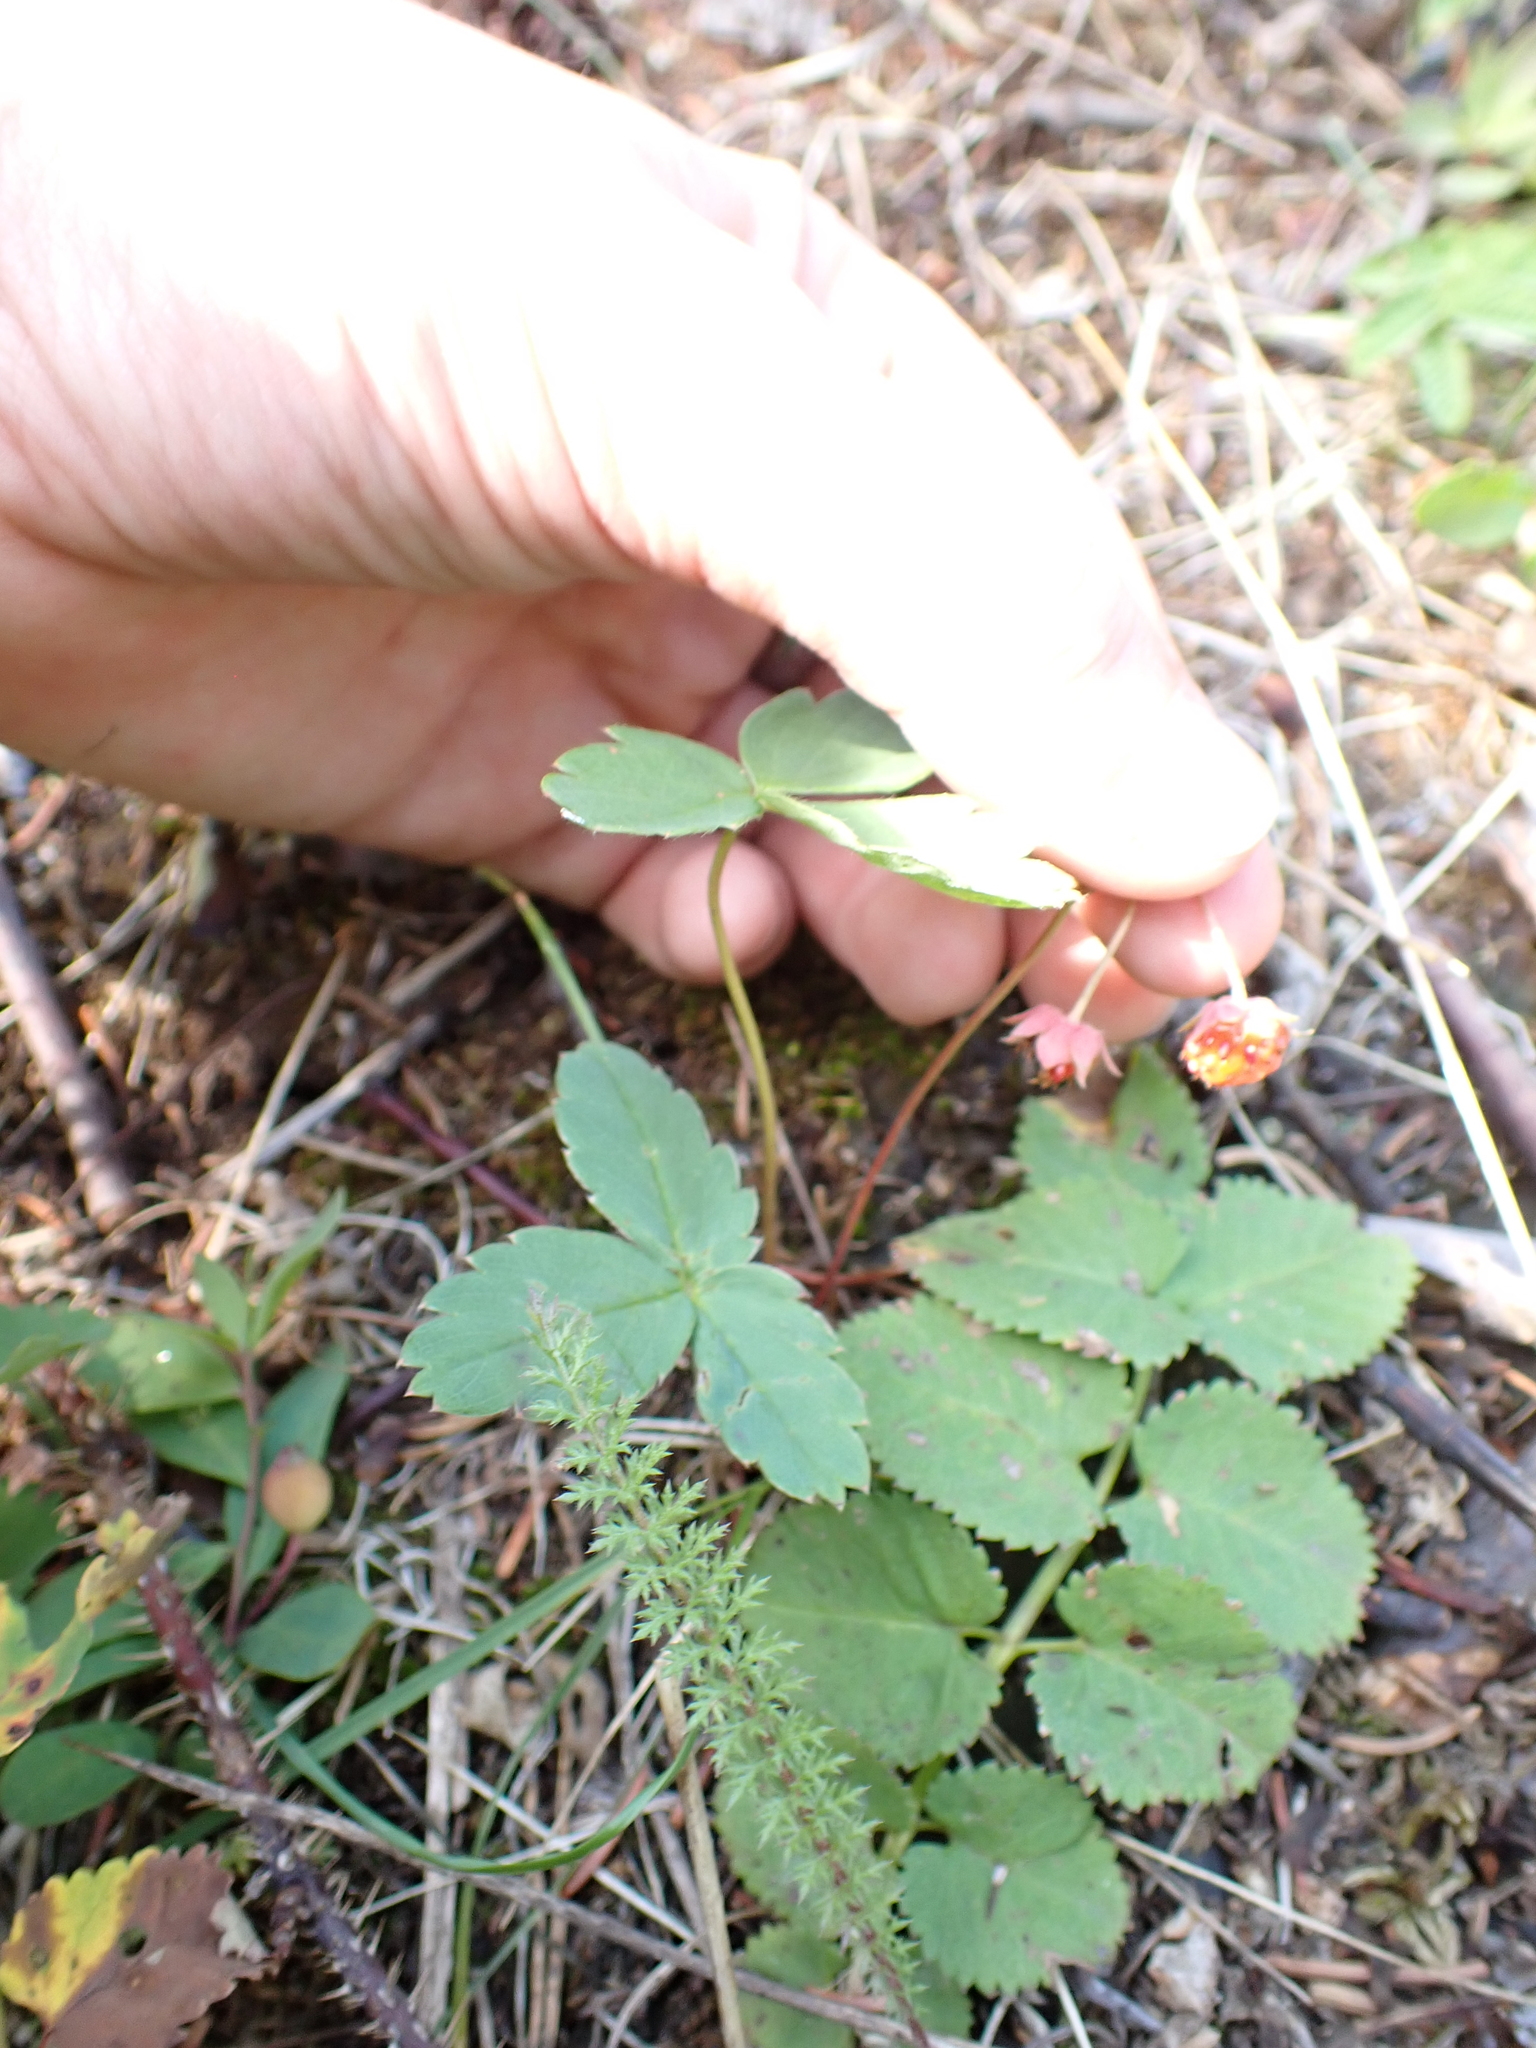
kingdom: Plantae
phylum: Tracheophyta
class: Magnoliopsida
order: Rosales
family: Rosaceae
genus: Fragaria
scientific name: Fragaria virginiana
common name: Thickleaved wild strawberry
